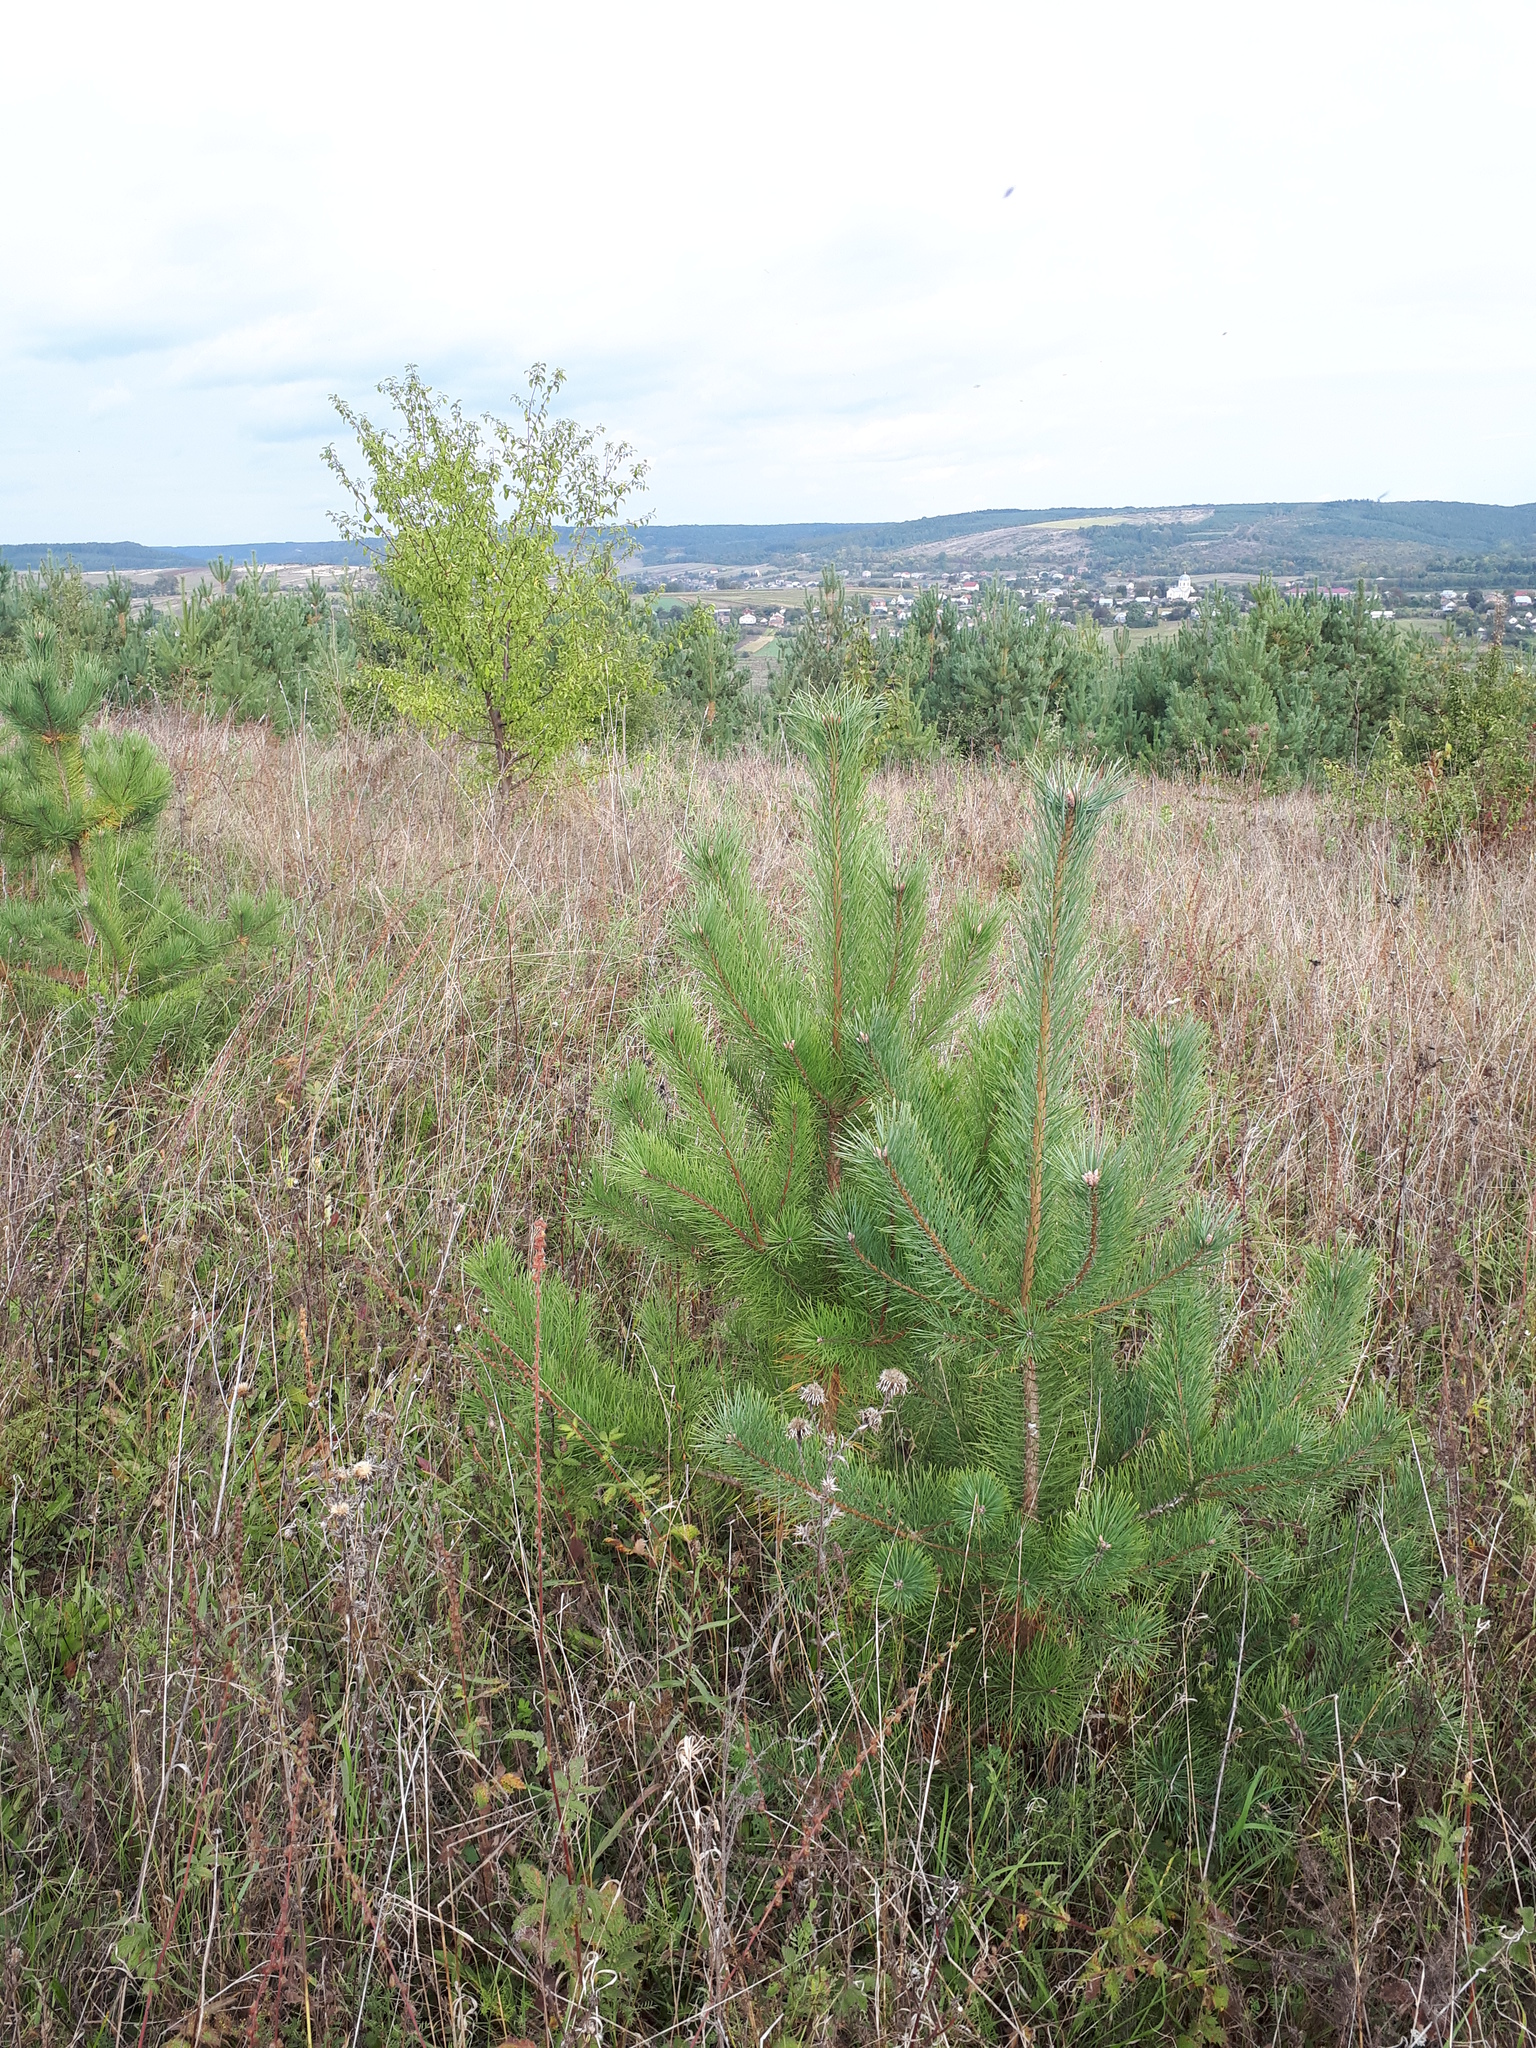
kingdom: Plantae
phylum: Tracheophyta
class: Pinopsida
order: Pinales
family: Pinaceae
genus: Pinus
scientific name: Pinus sylvestris
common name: Scots pine
